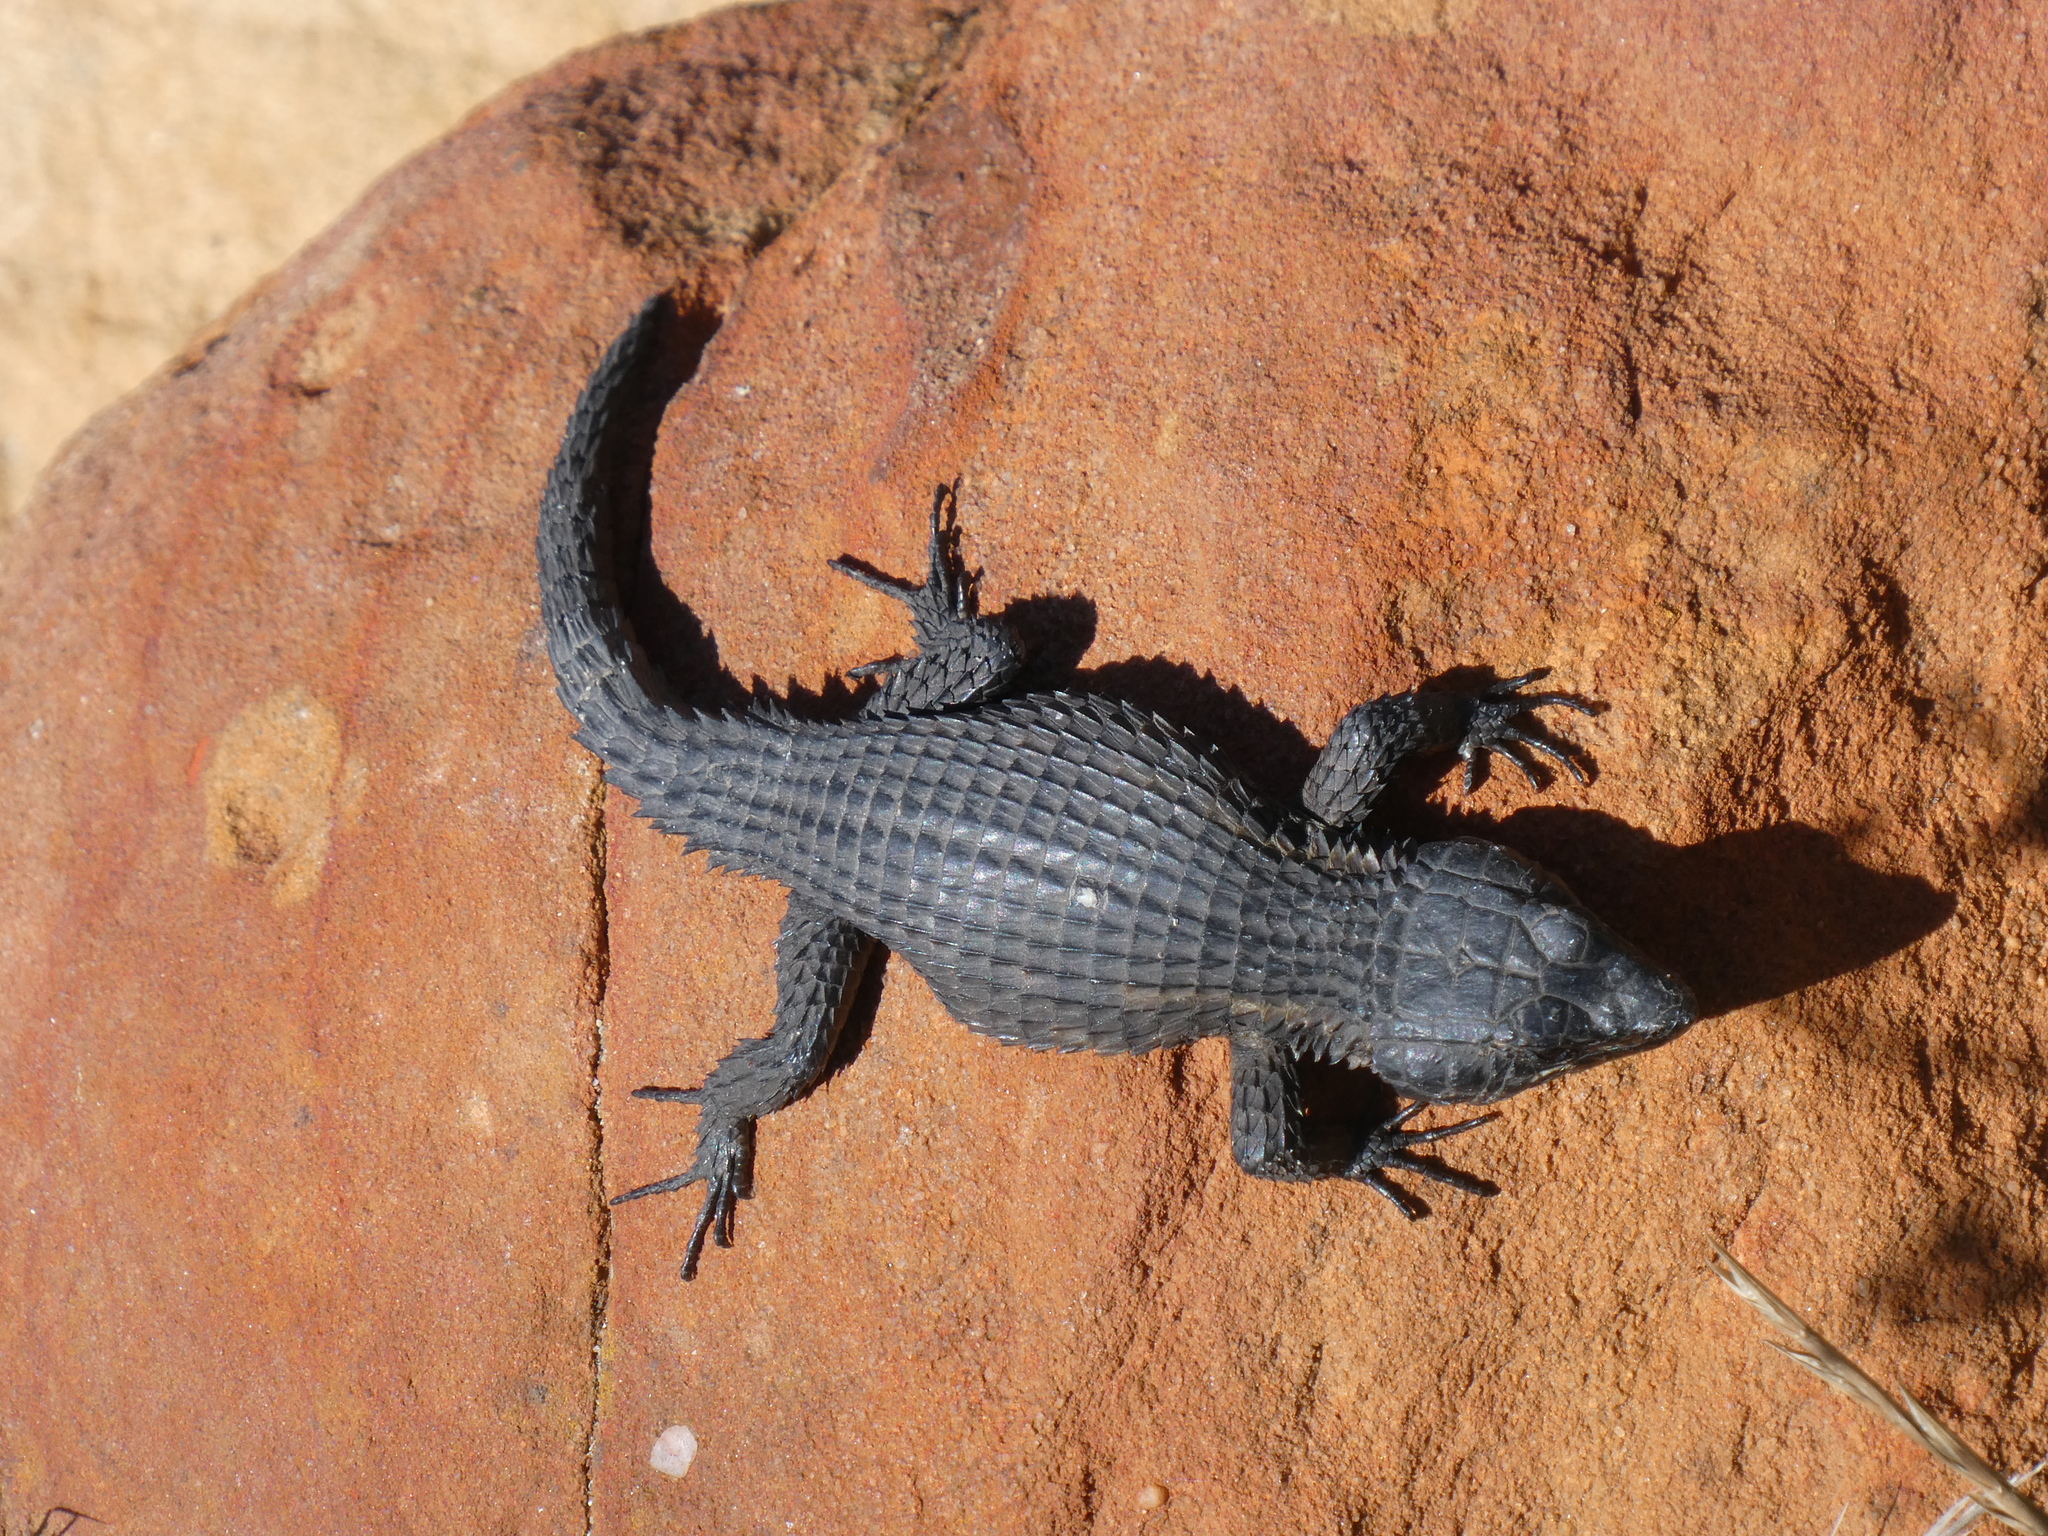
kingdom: Animalia
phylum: Chordata
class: Squamata
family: Cordylidae
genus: Cordylus
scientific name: Cordylus niger
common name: Black girdled lizard
